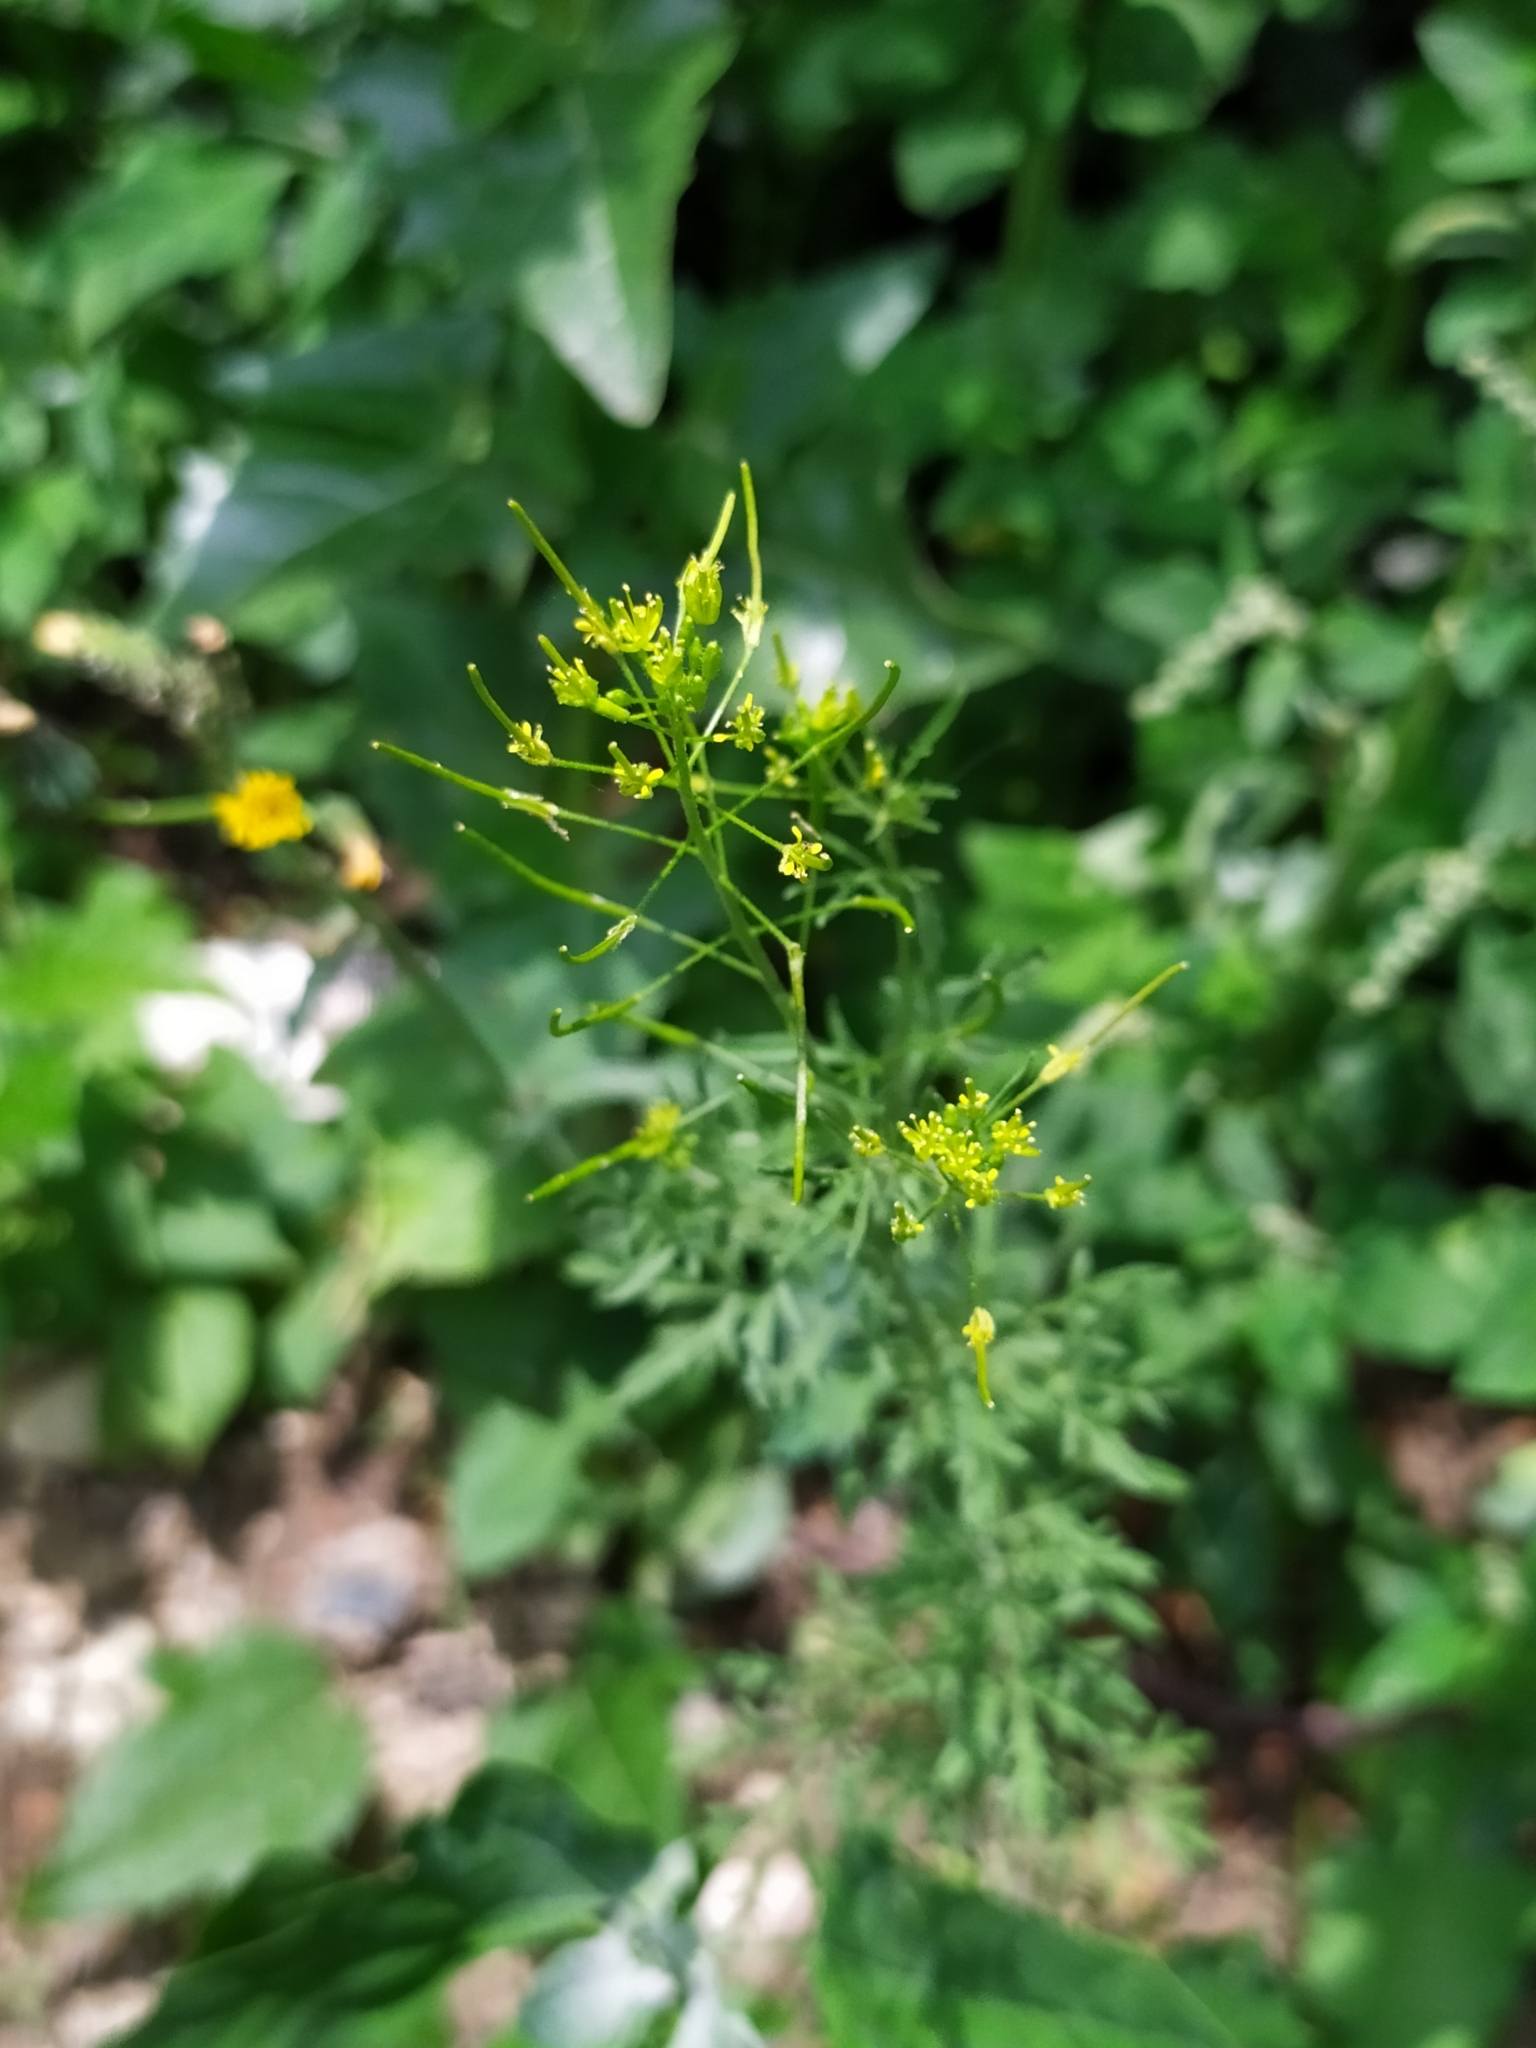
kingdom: Plantae
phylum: Tracheophyta
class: Magnoliopsida
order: Brassicales
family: Brassicaceae
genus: Descurainia
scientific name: Descurainia sophia
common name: Flixweed
